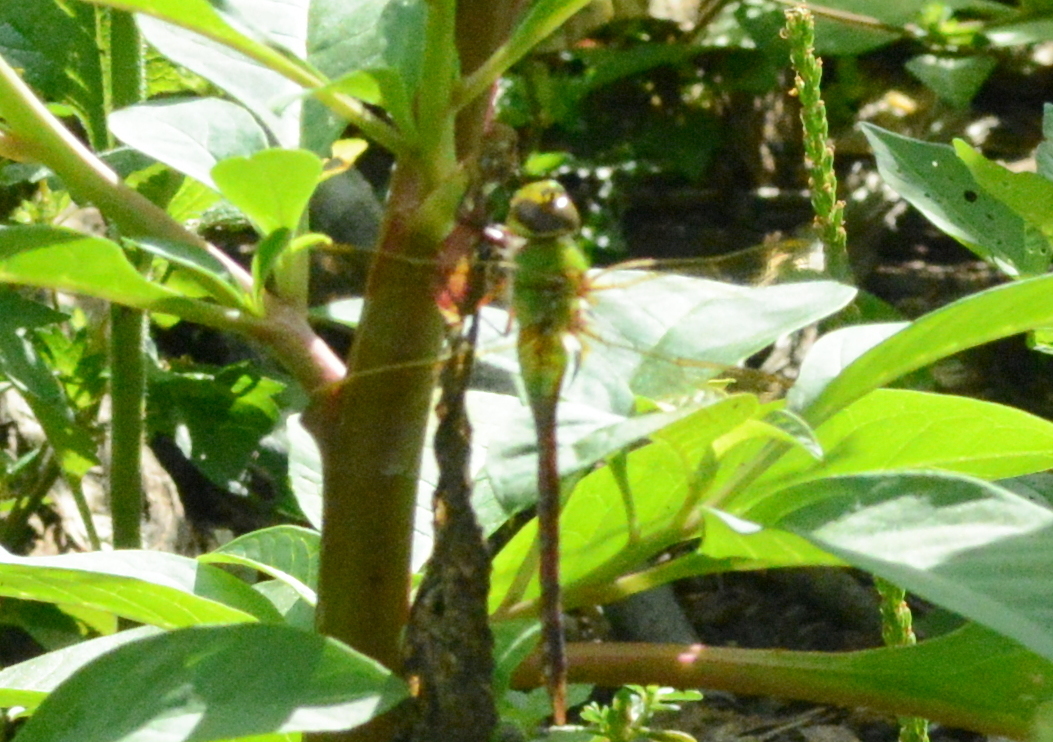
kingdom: Animalia
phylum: Arthropoda
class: Insecta
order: Odonata
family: Aeshnidae
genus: Anax
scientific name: Anax junius
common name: Common green darner
